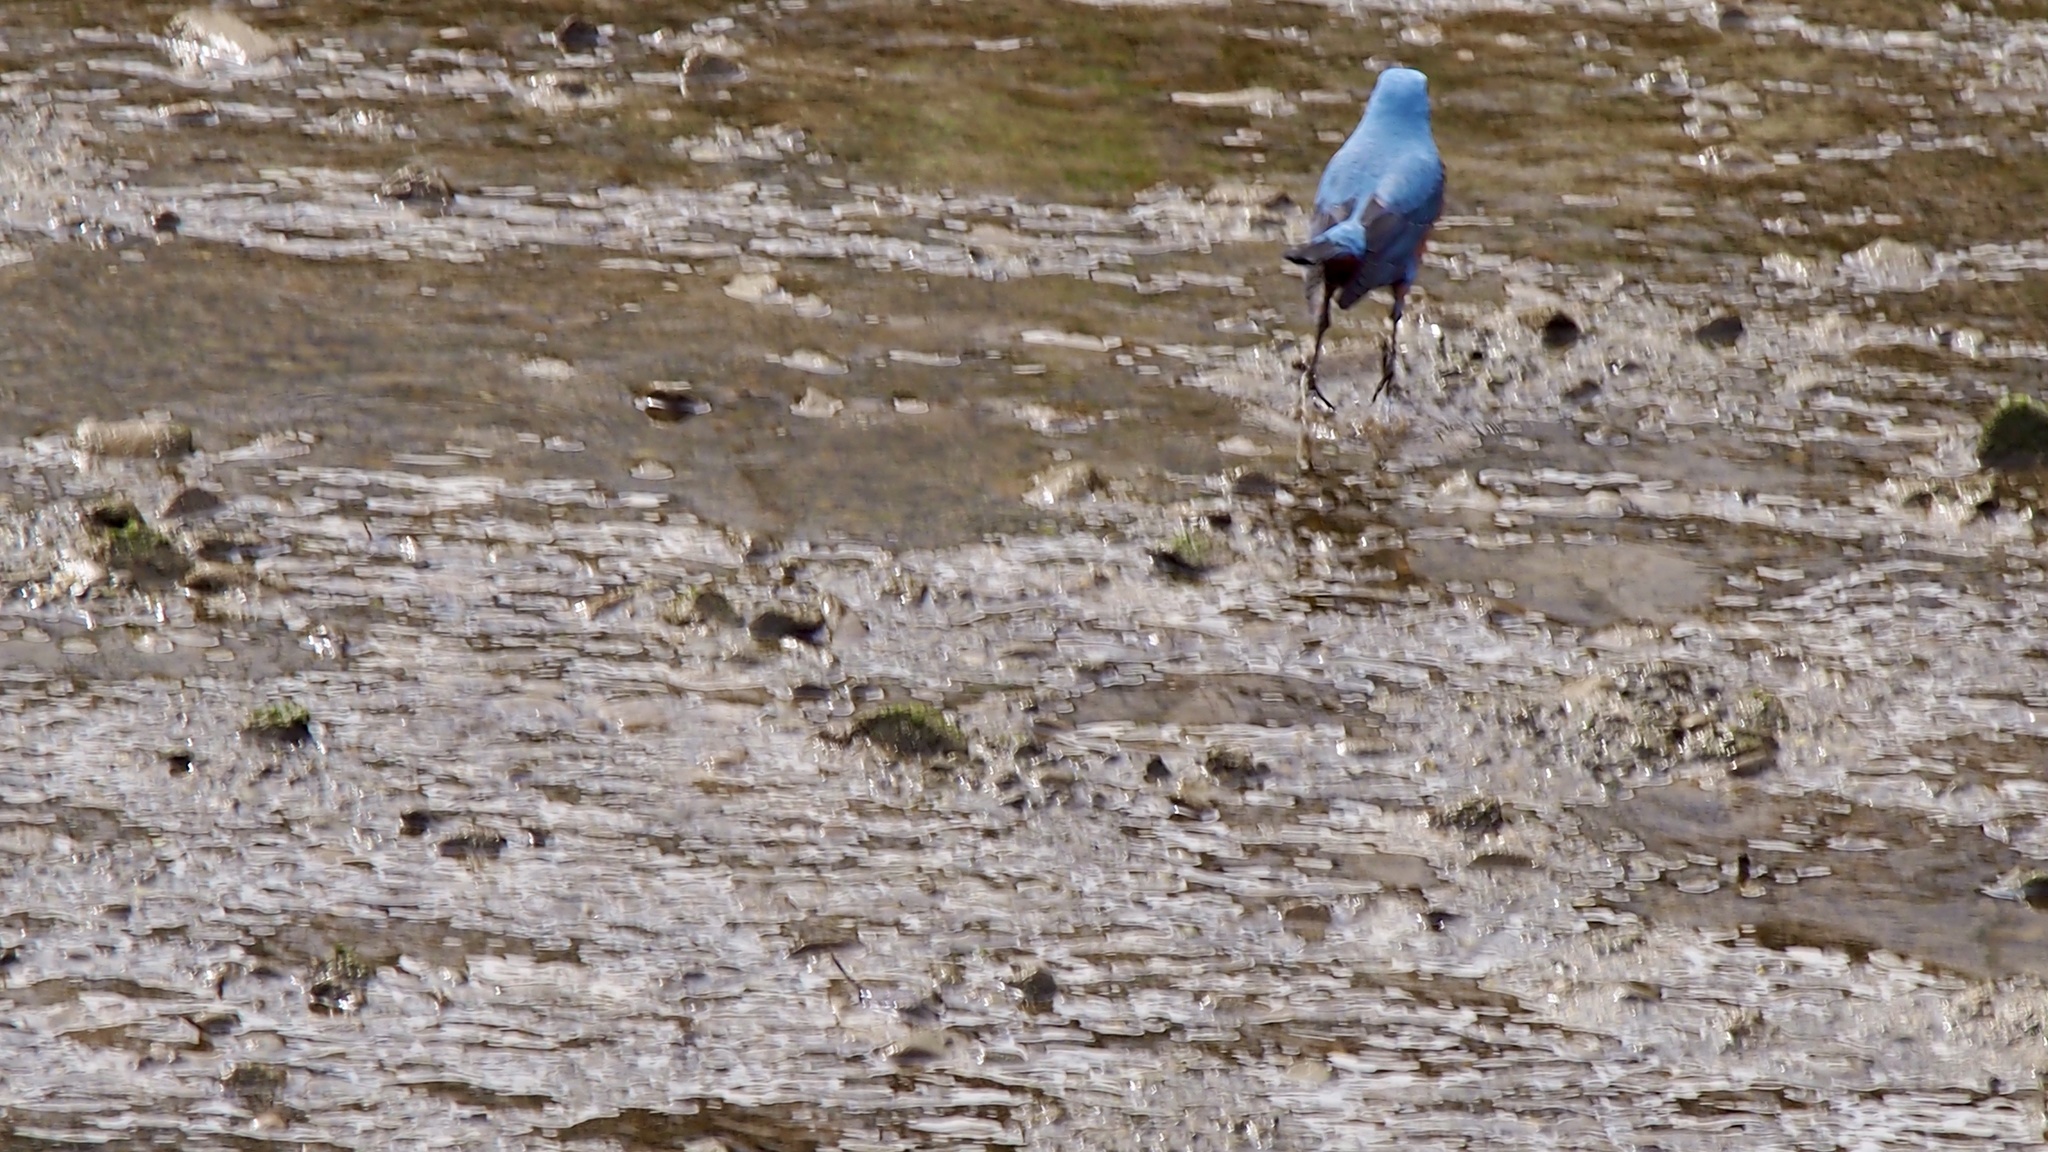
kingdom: Animalia
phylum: Chordata
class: Aves
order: Passeriformes
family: Muscicapidae
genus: Monticola
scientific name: Monticola solitarius
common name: Blue rock thrush
